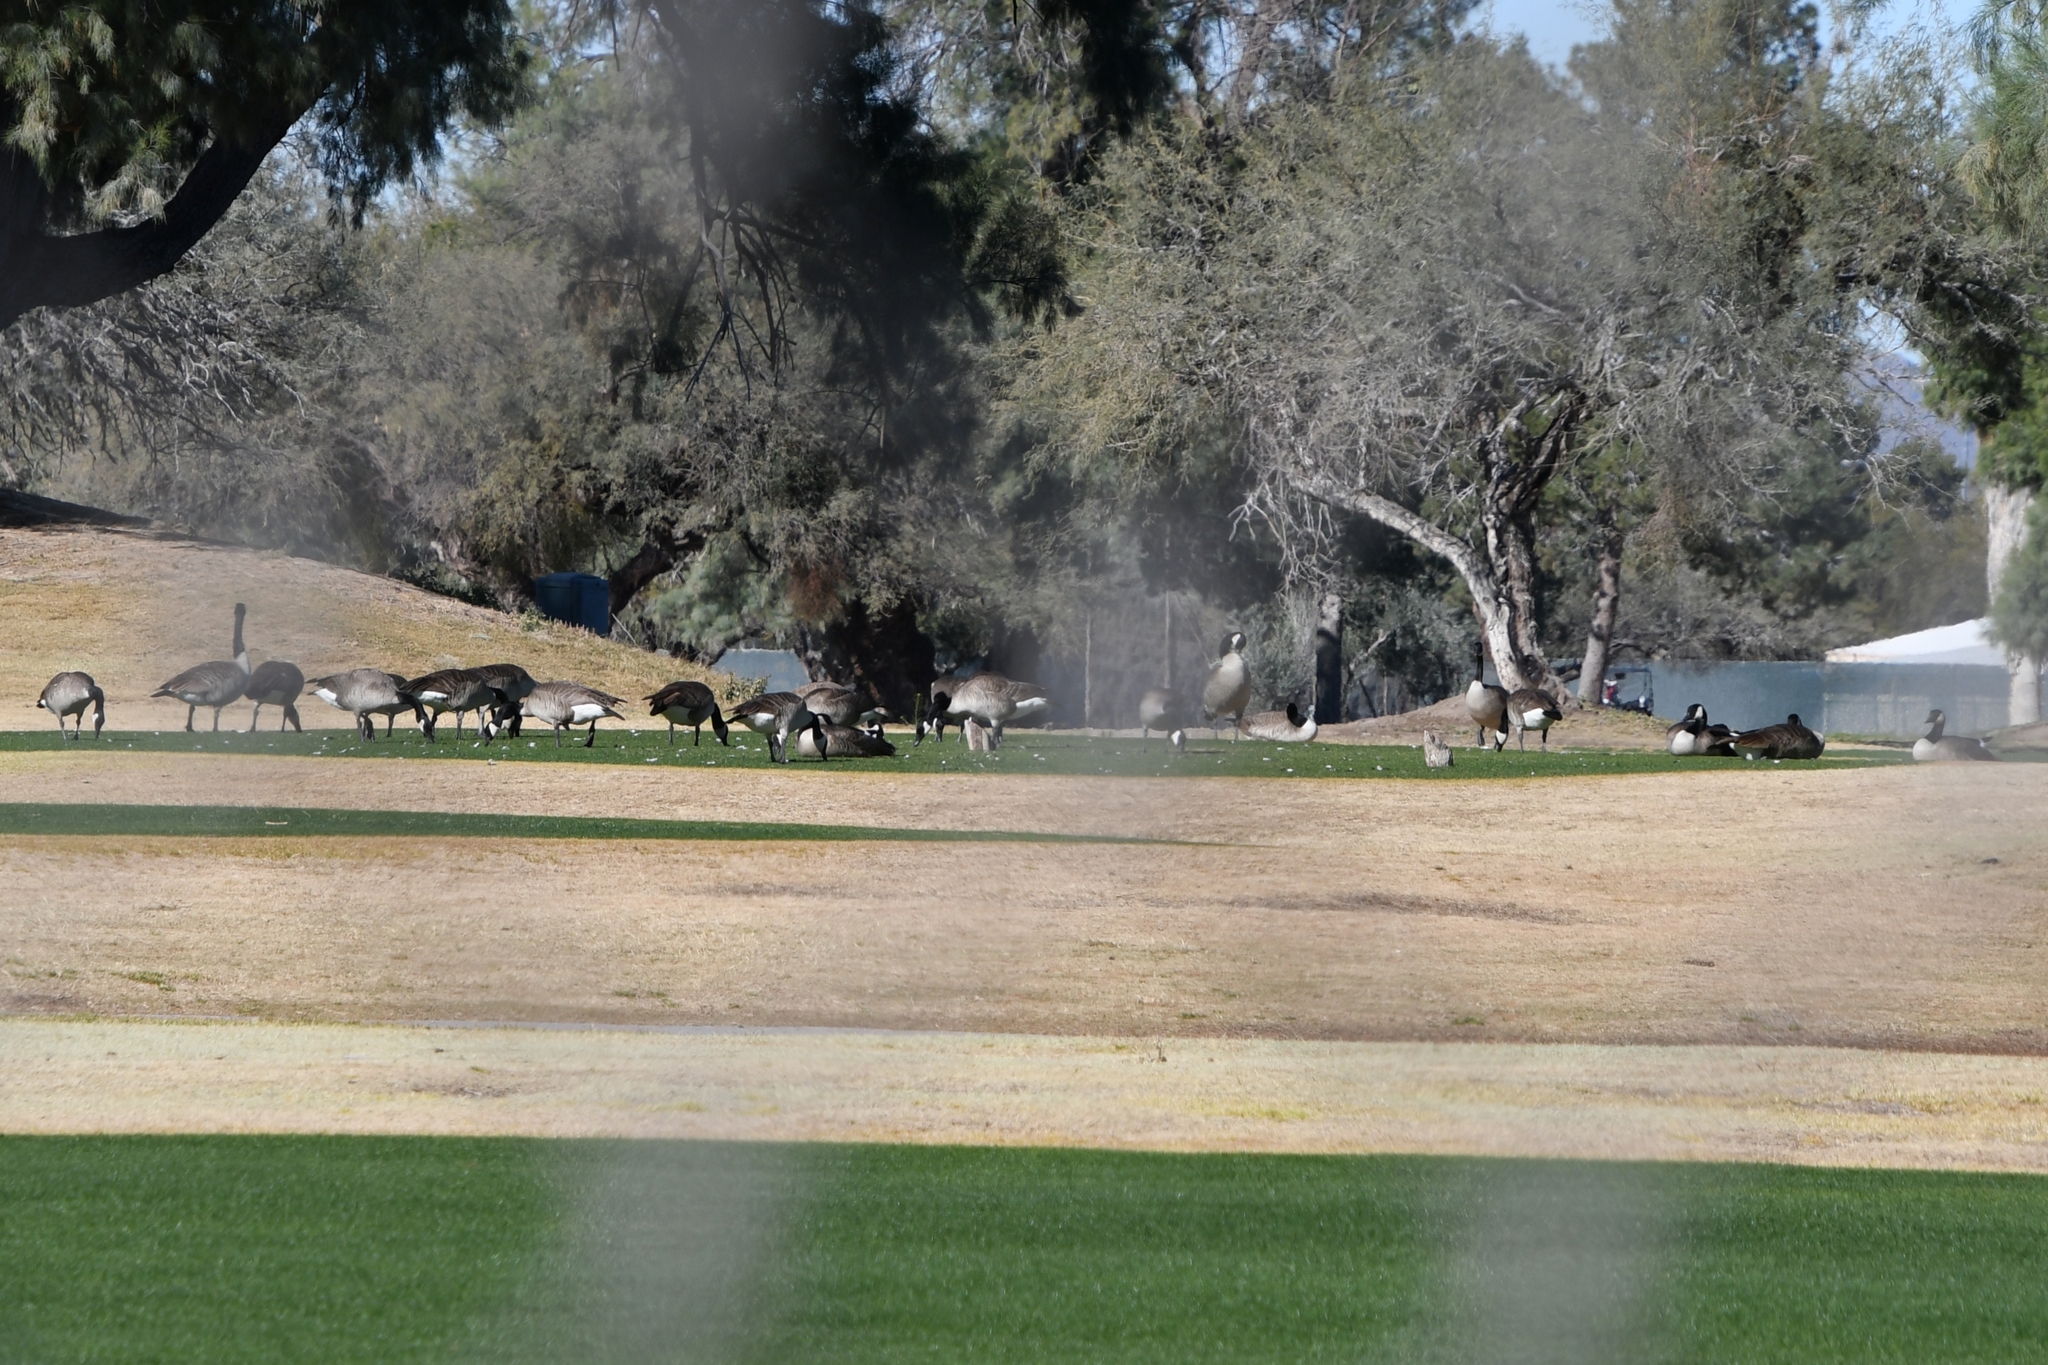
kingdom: Animalia
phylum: Chordata
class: Aves
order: Anseriformes
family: Anatidae
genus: Branta
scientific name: Branta canadensis
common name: Canada goose
